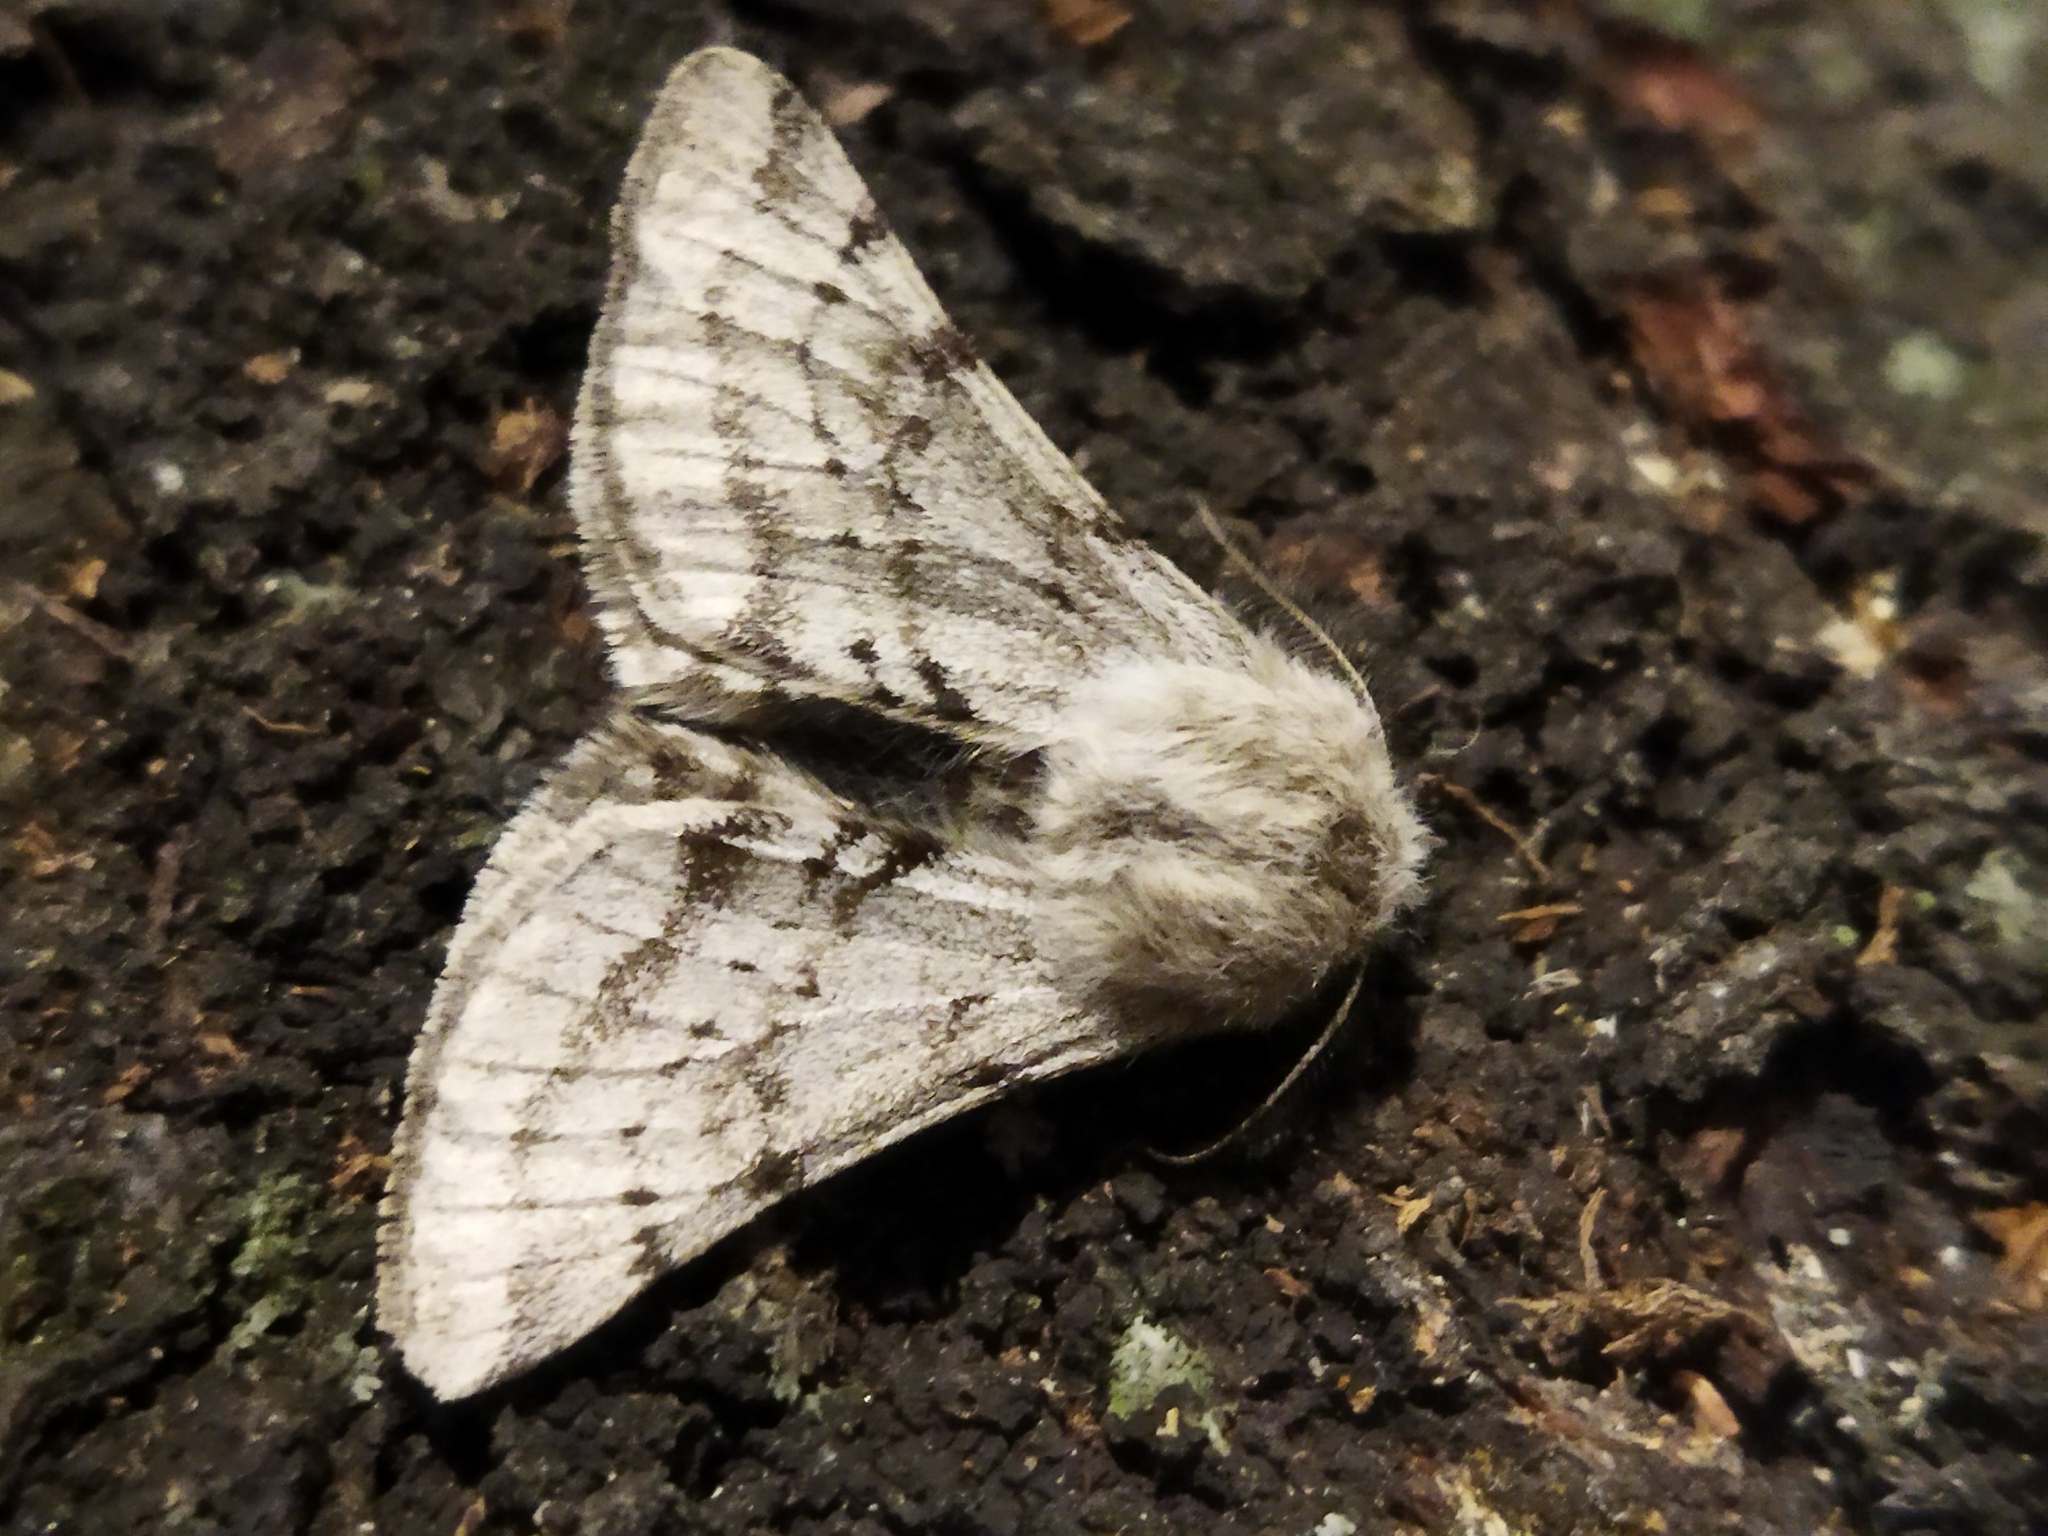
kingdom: Animalia
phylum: Arthropoda
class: Insecta
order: Lepidoptera
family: Geometridae
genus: Lycia
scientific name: Lycia graecarius
